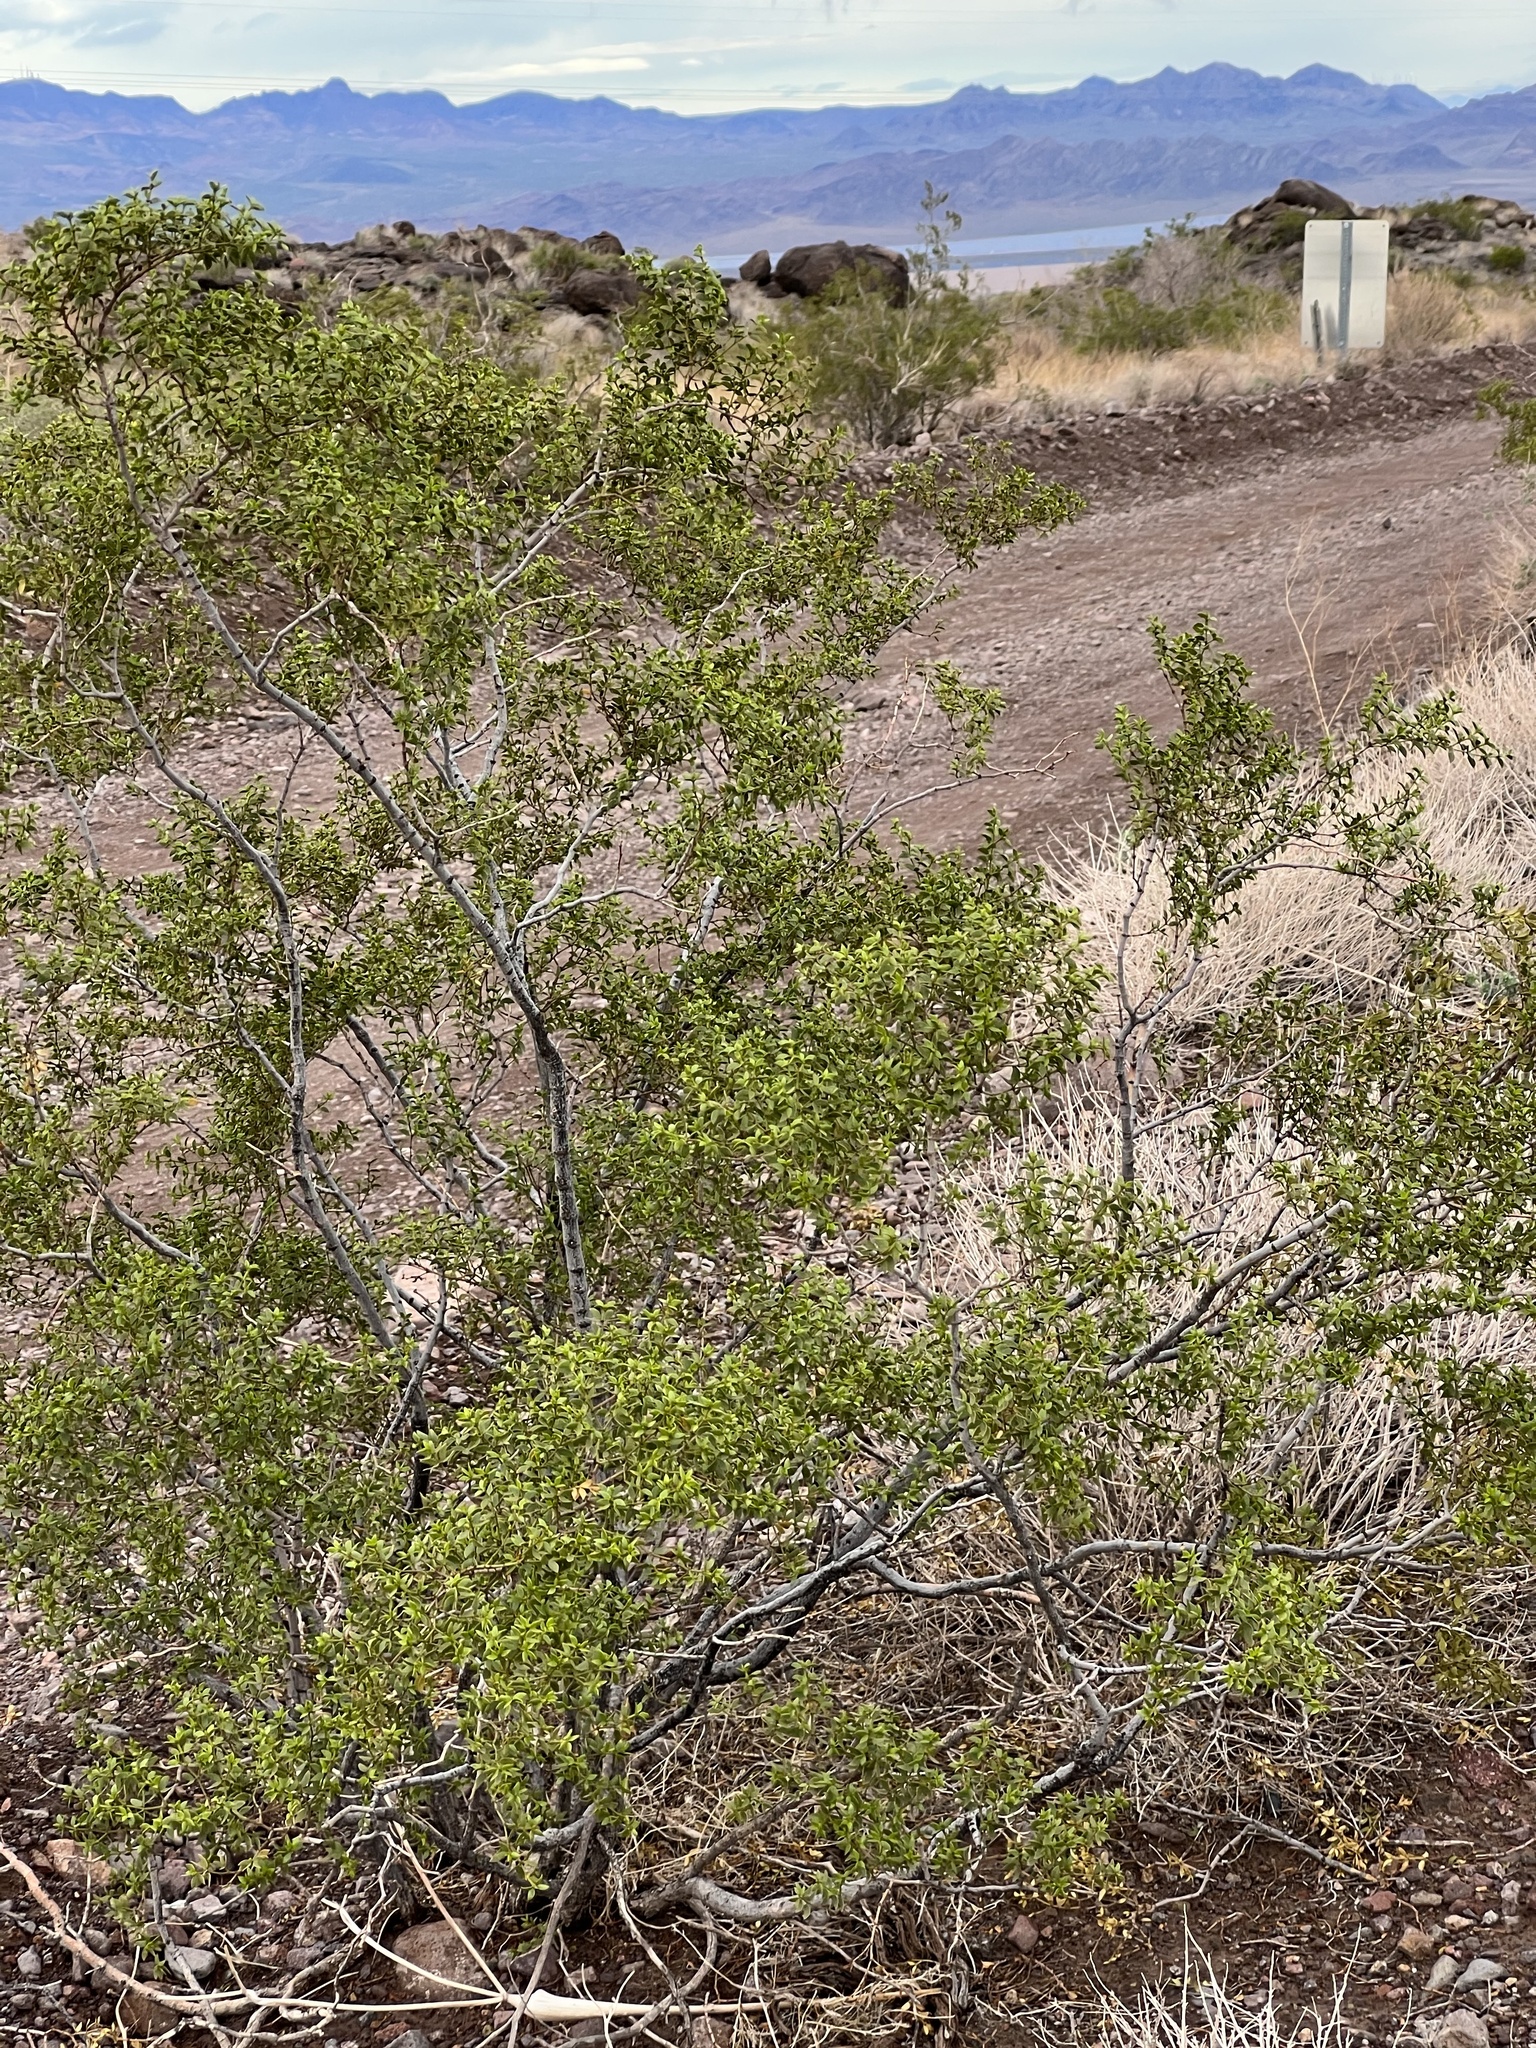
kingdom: Plantae
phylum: Tracheophyta
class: Magnoliopsida
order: Zygophyllales
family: Zygophyllaceae
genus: Larrea
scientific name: Larrea tridentata
